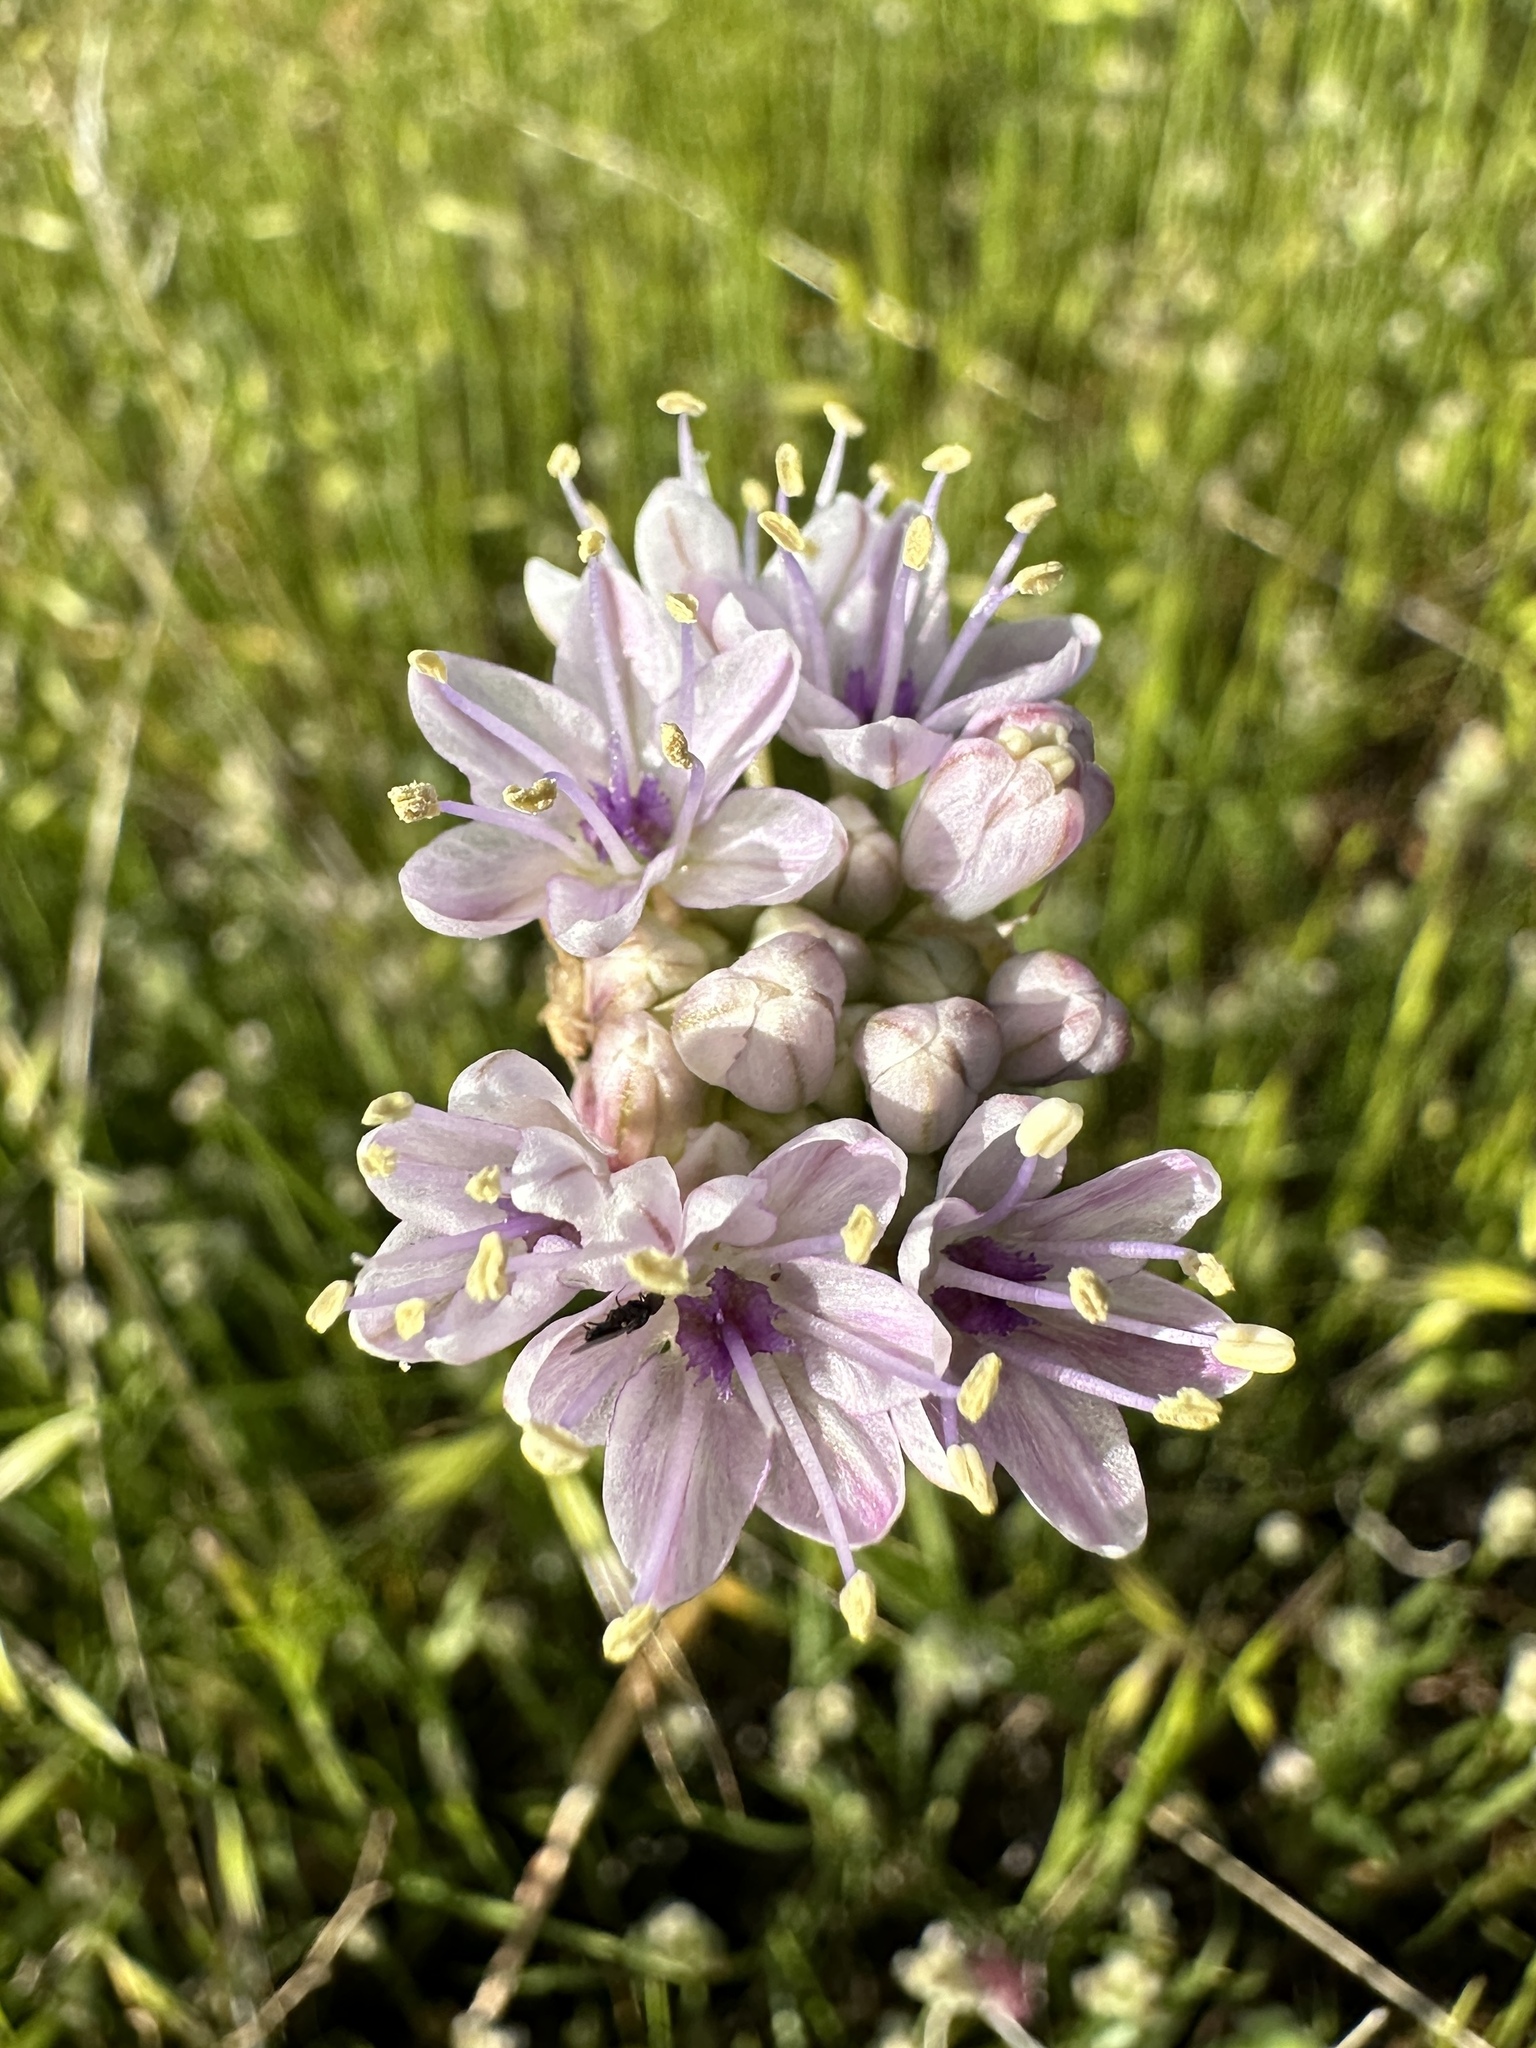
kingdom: Plantae
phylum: Tracheophyta
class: Liliopsida
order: Asparagales
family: Amaryllidaceae
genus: Allium
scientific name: Allium howellii
